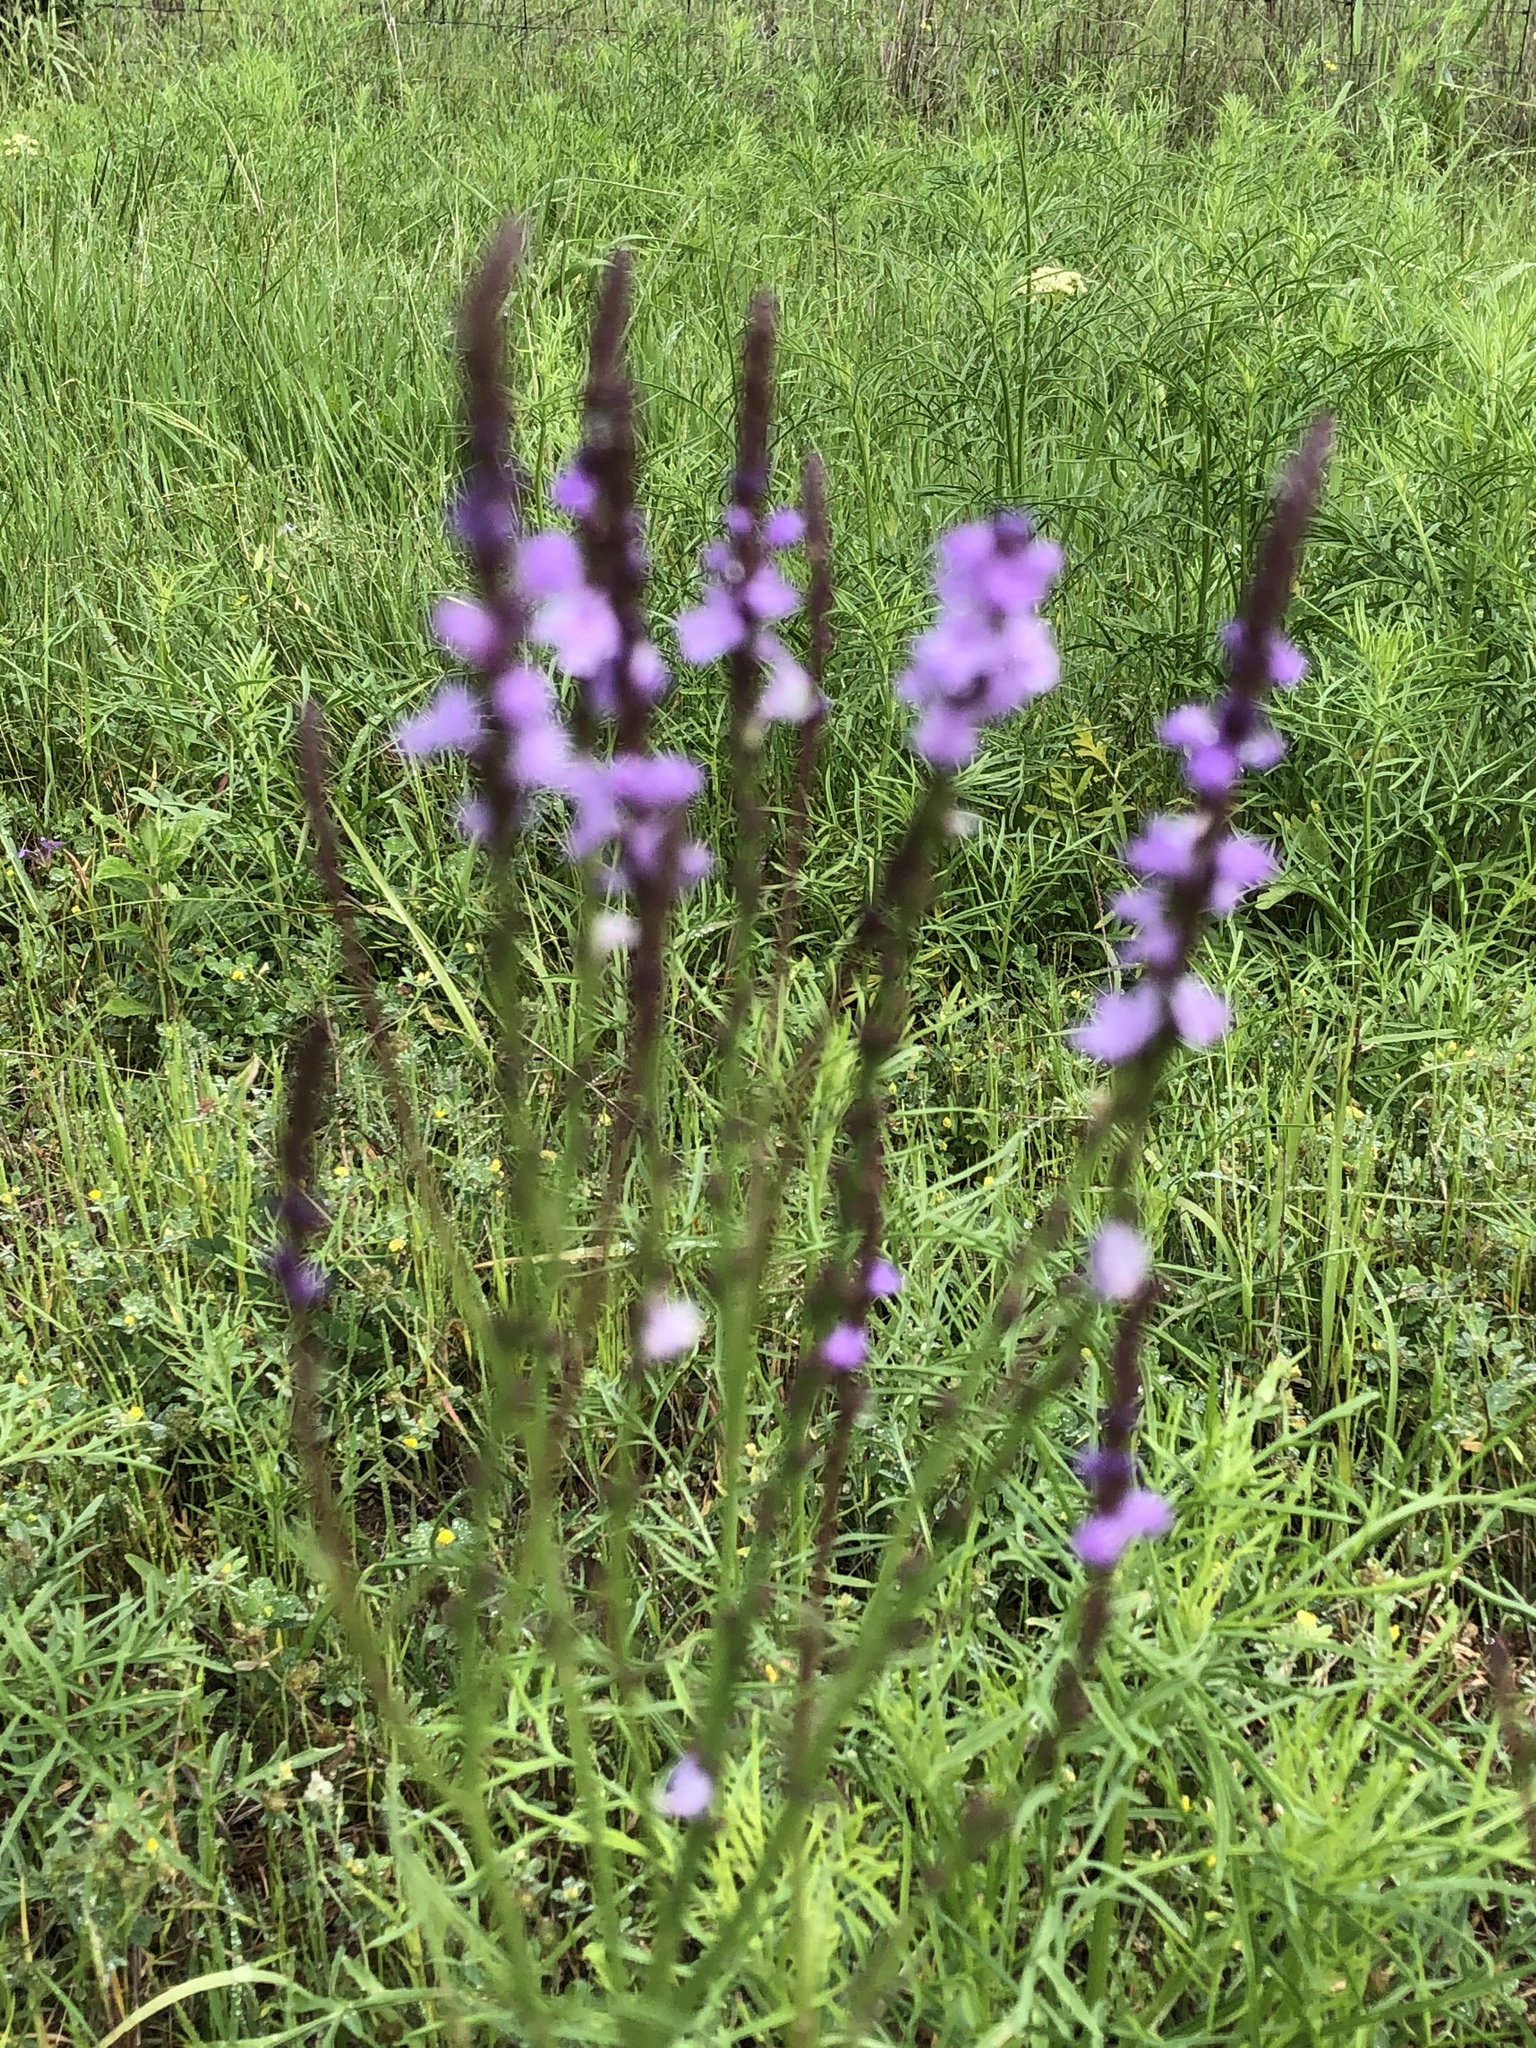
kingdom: Plantae
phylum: Tracheophyta
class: Magnoliopsida
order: Lamiales
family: Verbenaceae
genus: Verbena
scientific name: Verbena halei
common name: Texas vervain
